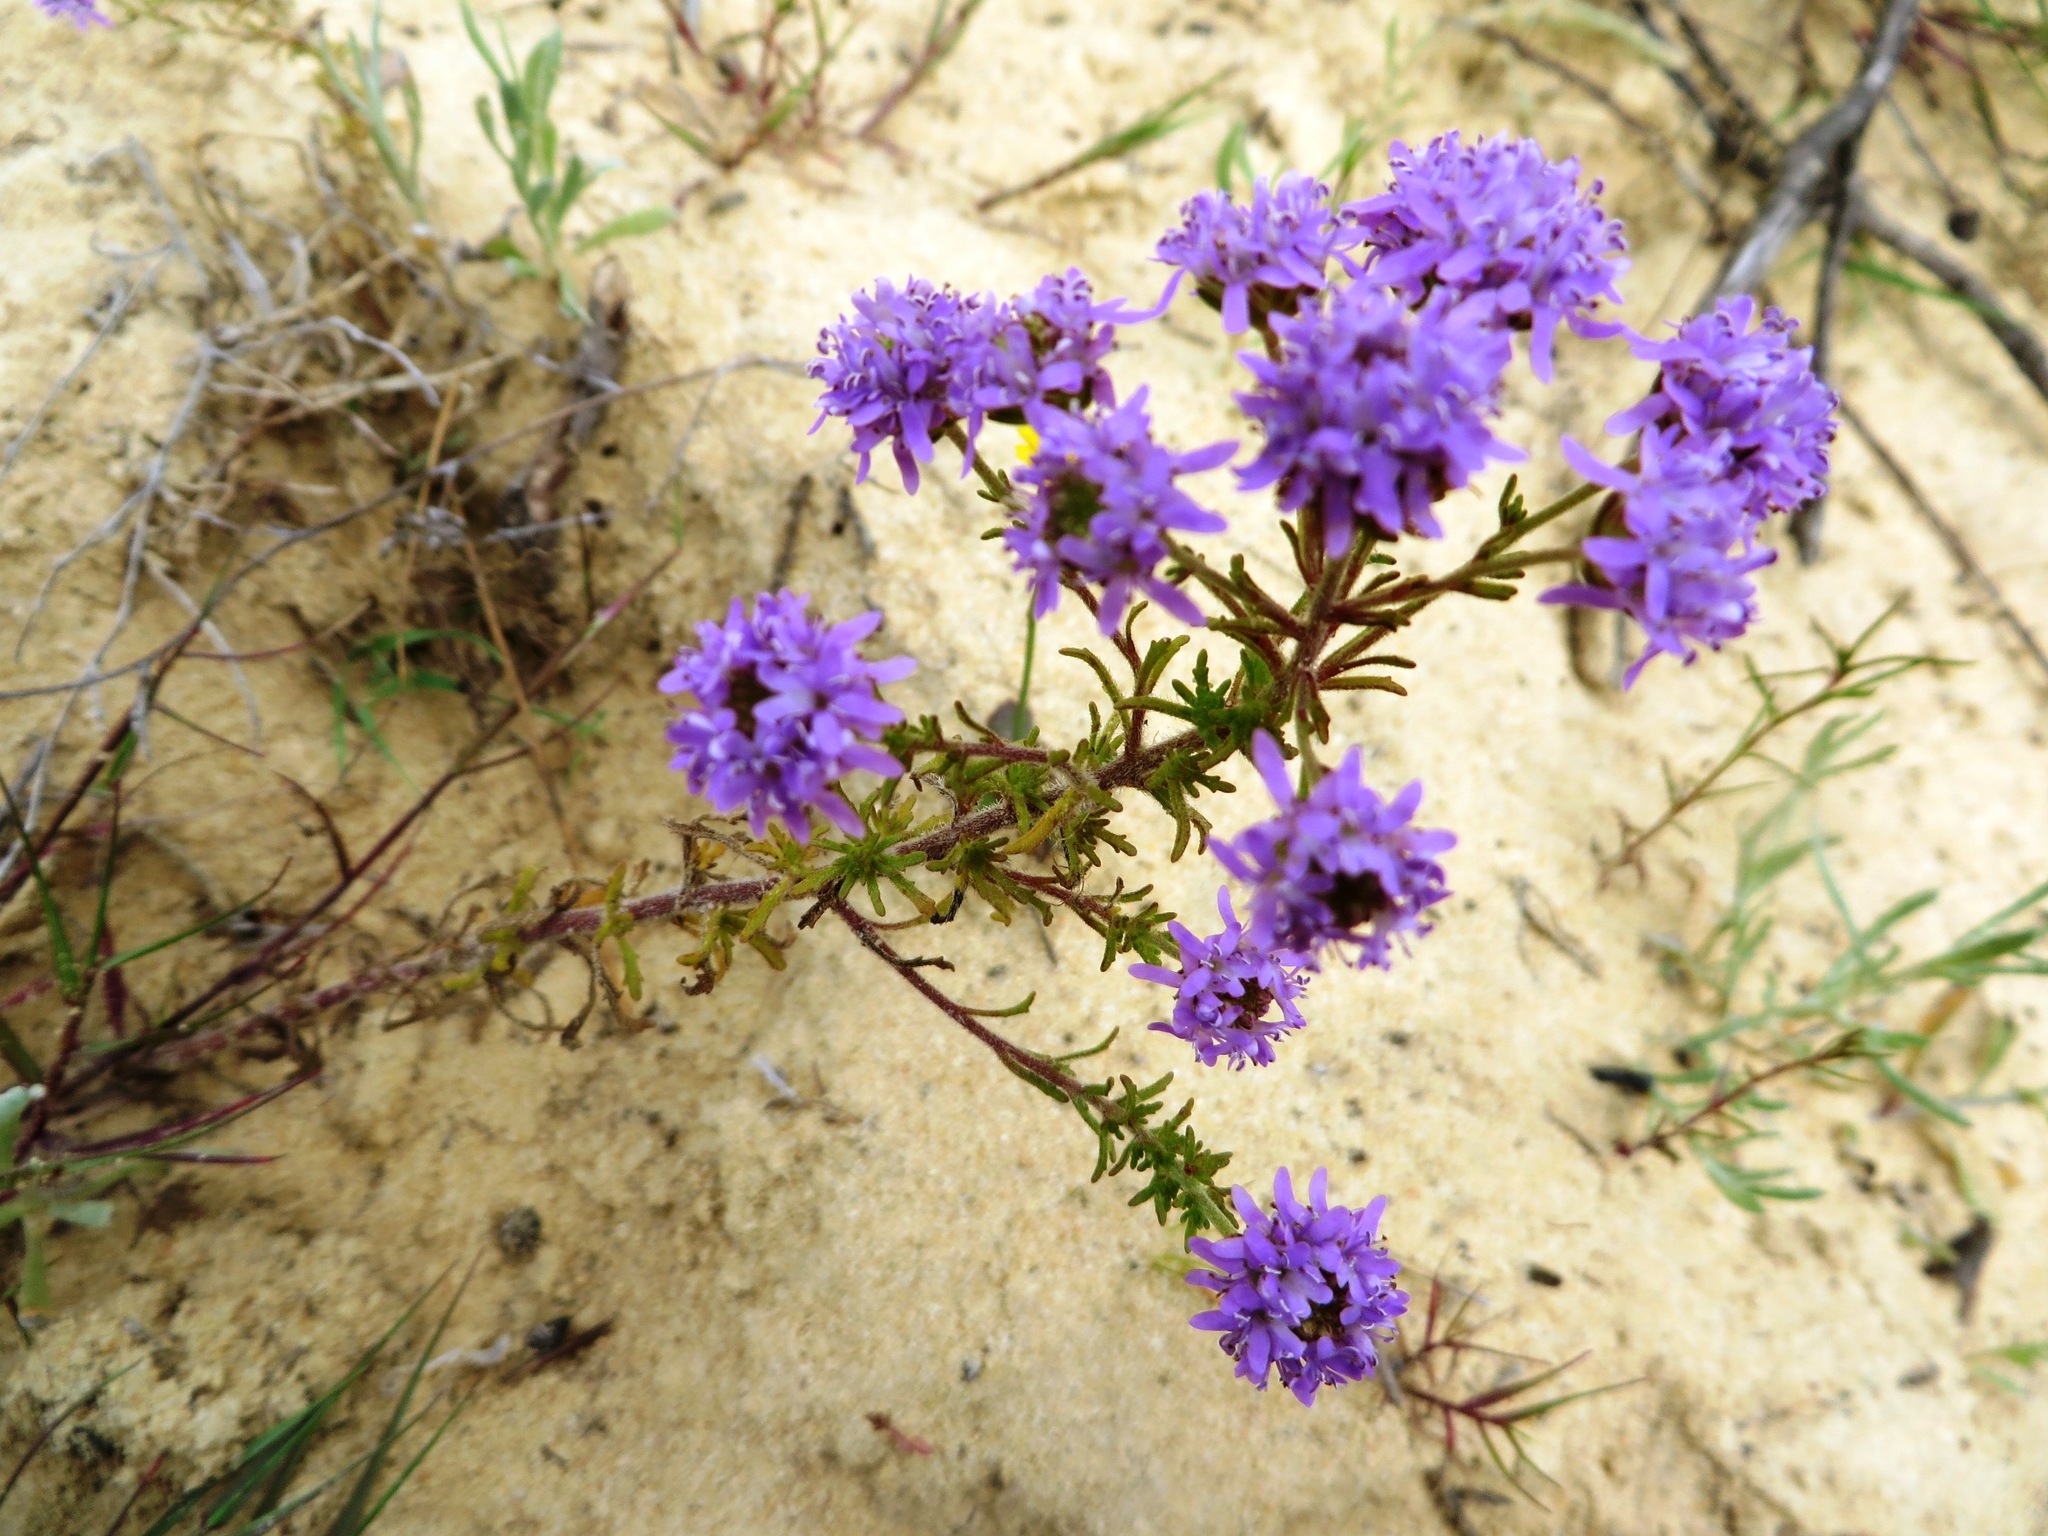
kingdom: Plantae
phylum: Tracheophyta
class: Magnoliopsida
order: Lamiales
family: Scrophulariaceae
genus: Phyllopodium
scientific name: Phyllopodium cephalophorum
